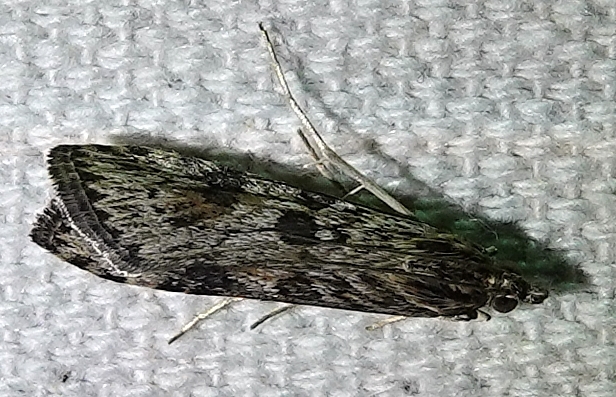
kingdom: Animalia
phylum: Arthropoda
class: Insecta
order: Lepidoptera
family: Crambidae
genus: Nomophila
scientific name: Nomophila nearctica
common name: American rush veneer
